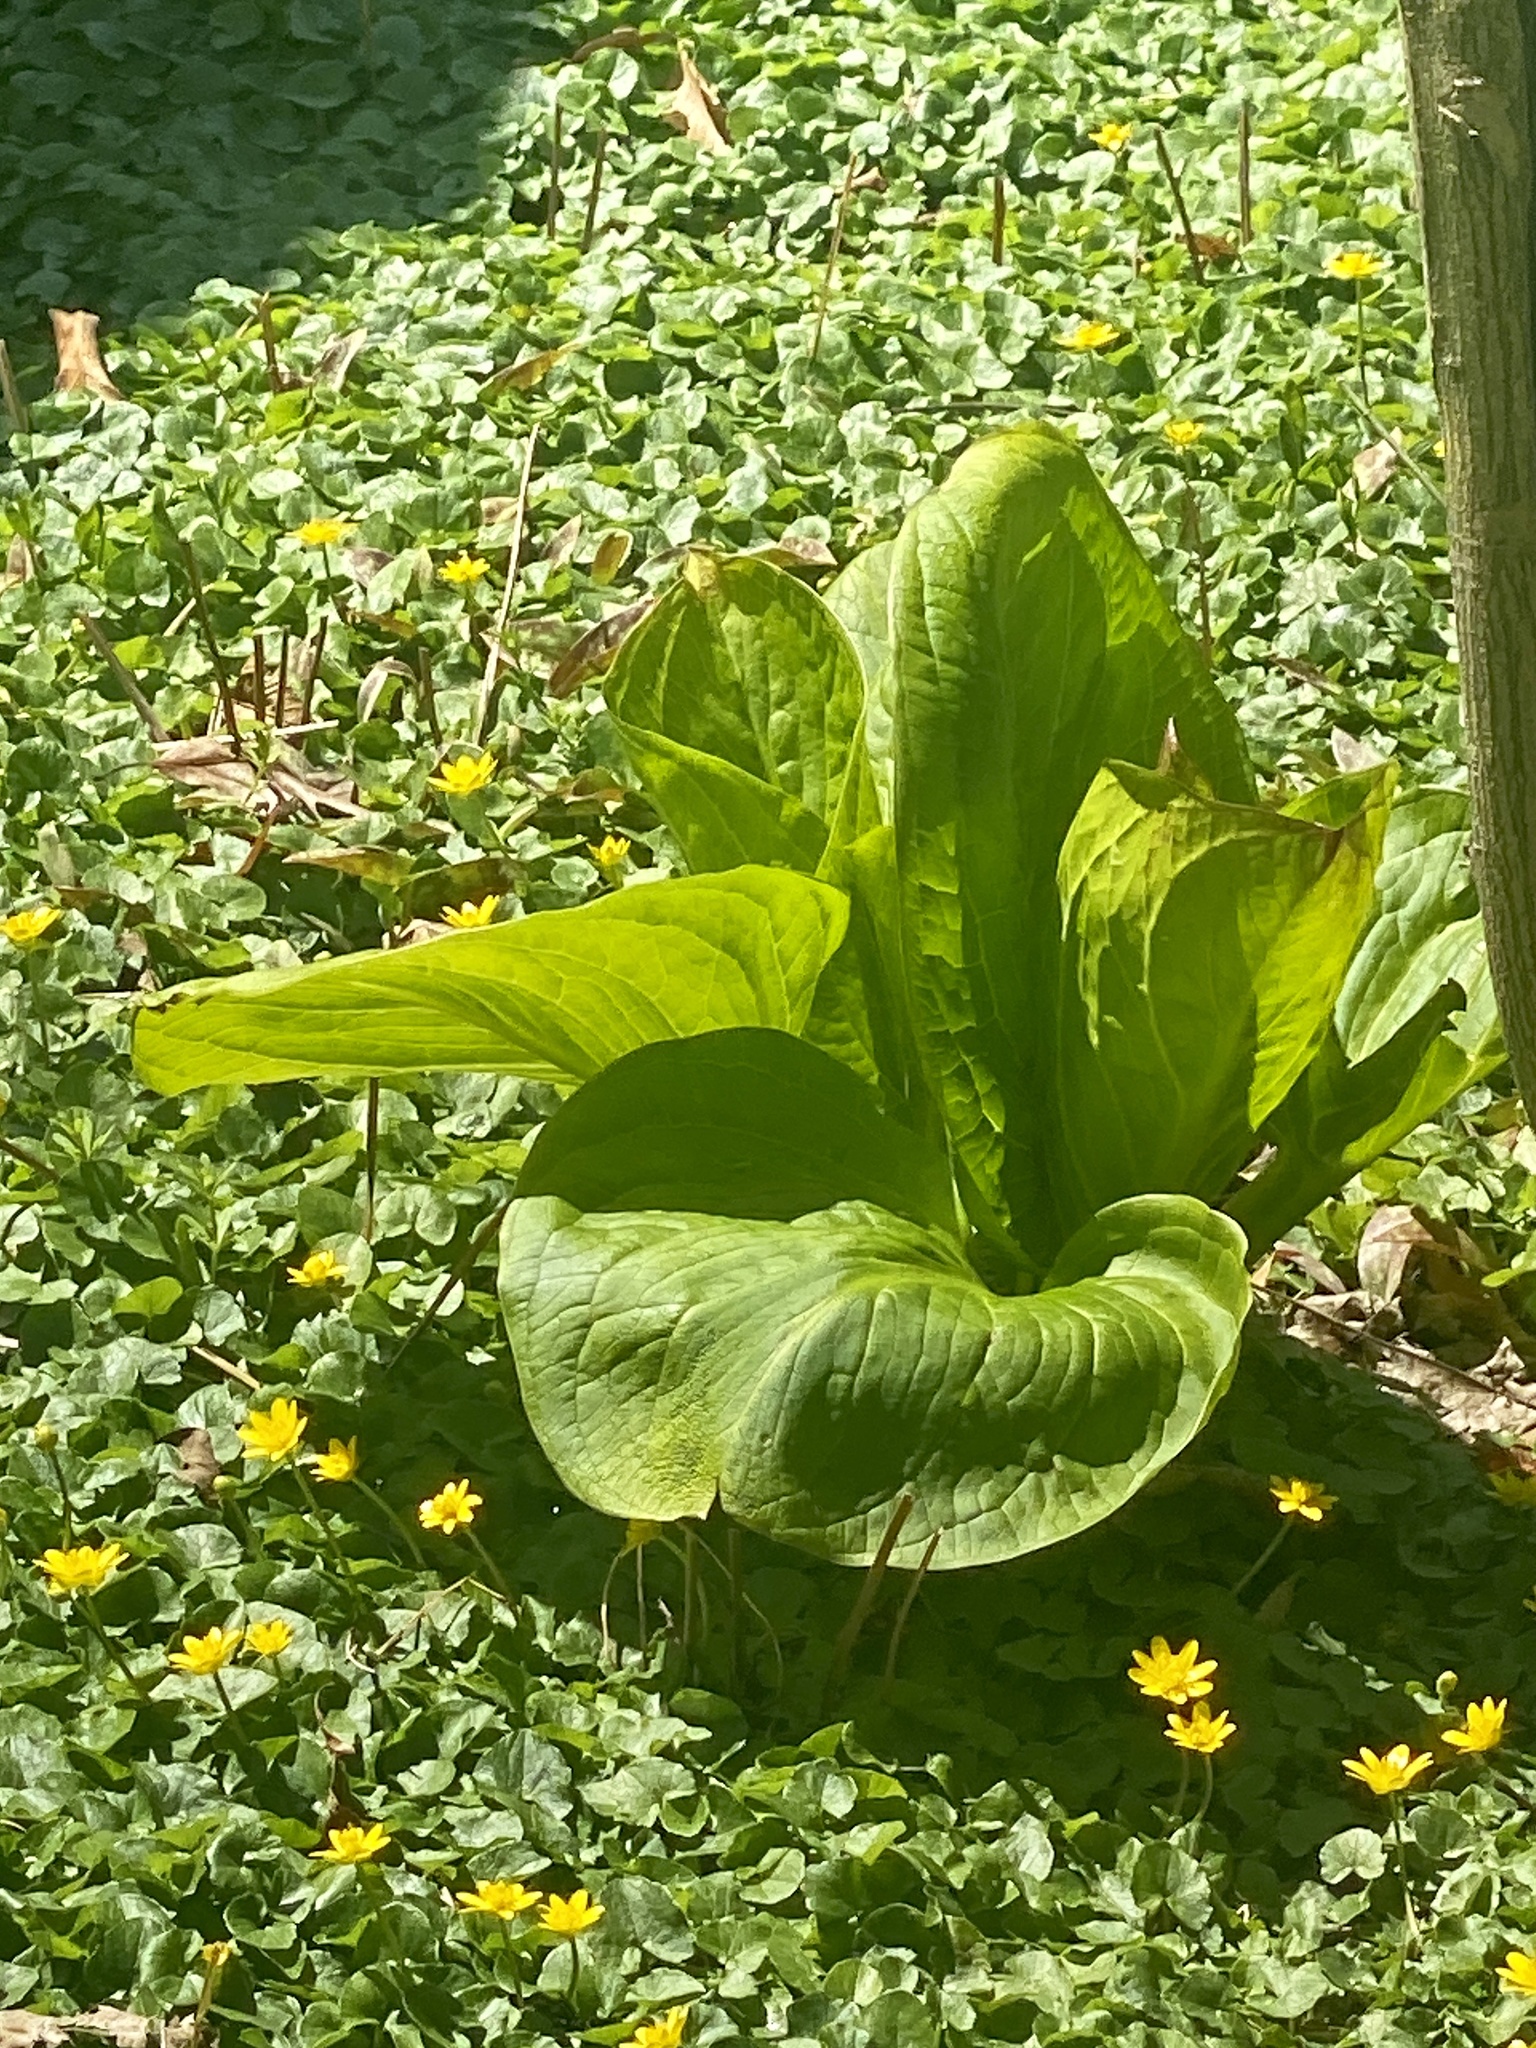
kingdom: Plantae
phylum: Tracheophyta
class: Liliopsida
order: Alismatales
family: Araceae
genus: Symplocarpus
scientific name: Symplocarpus foetidus
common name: Eastern skunk cabbage
